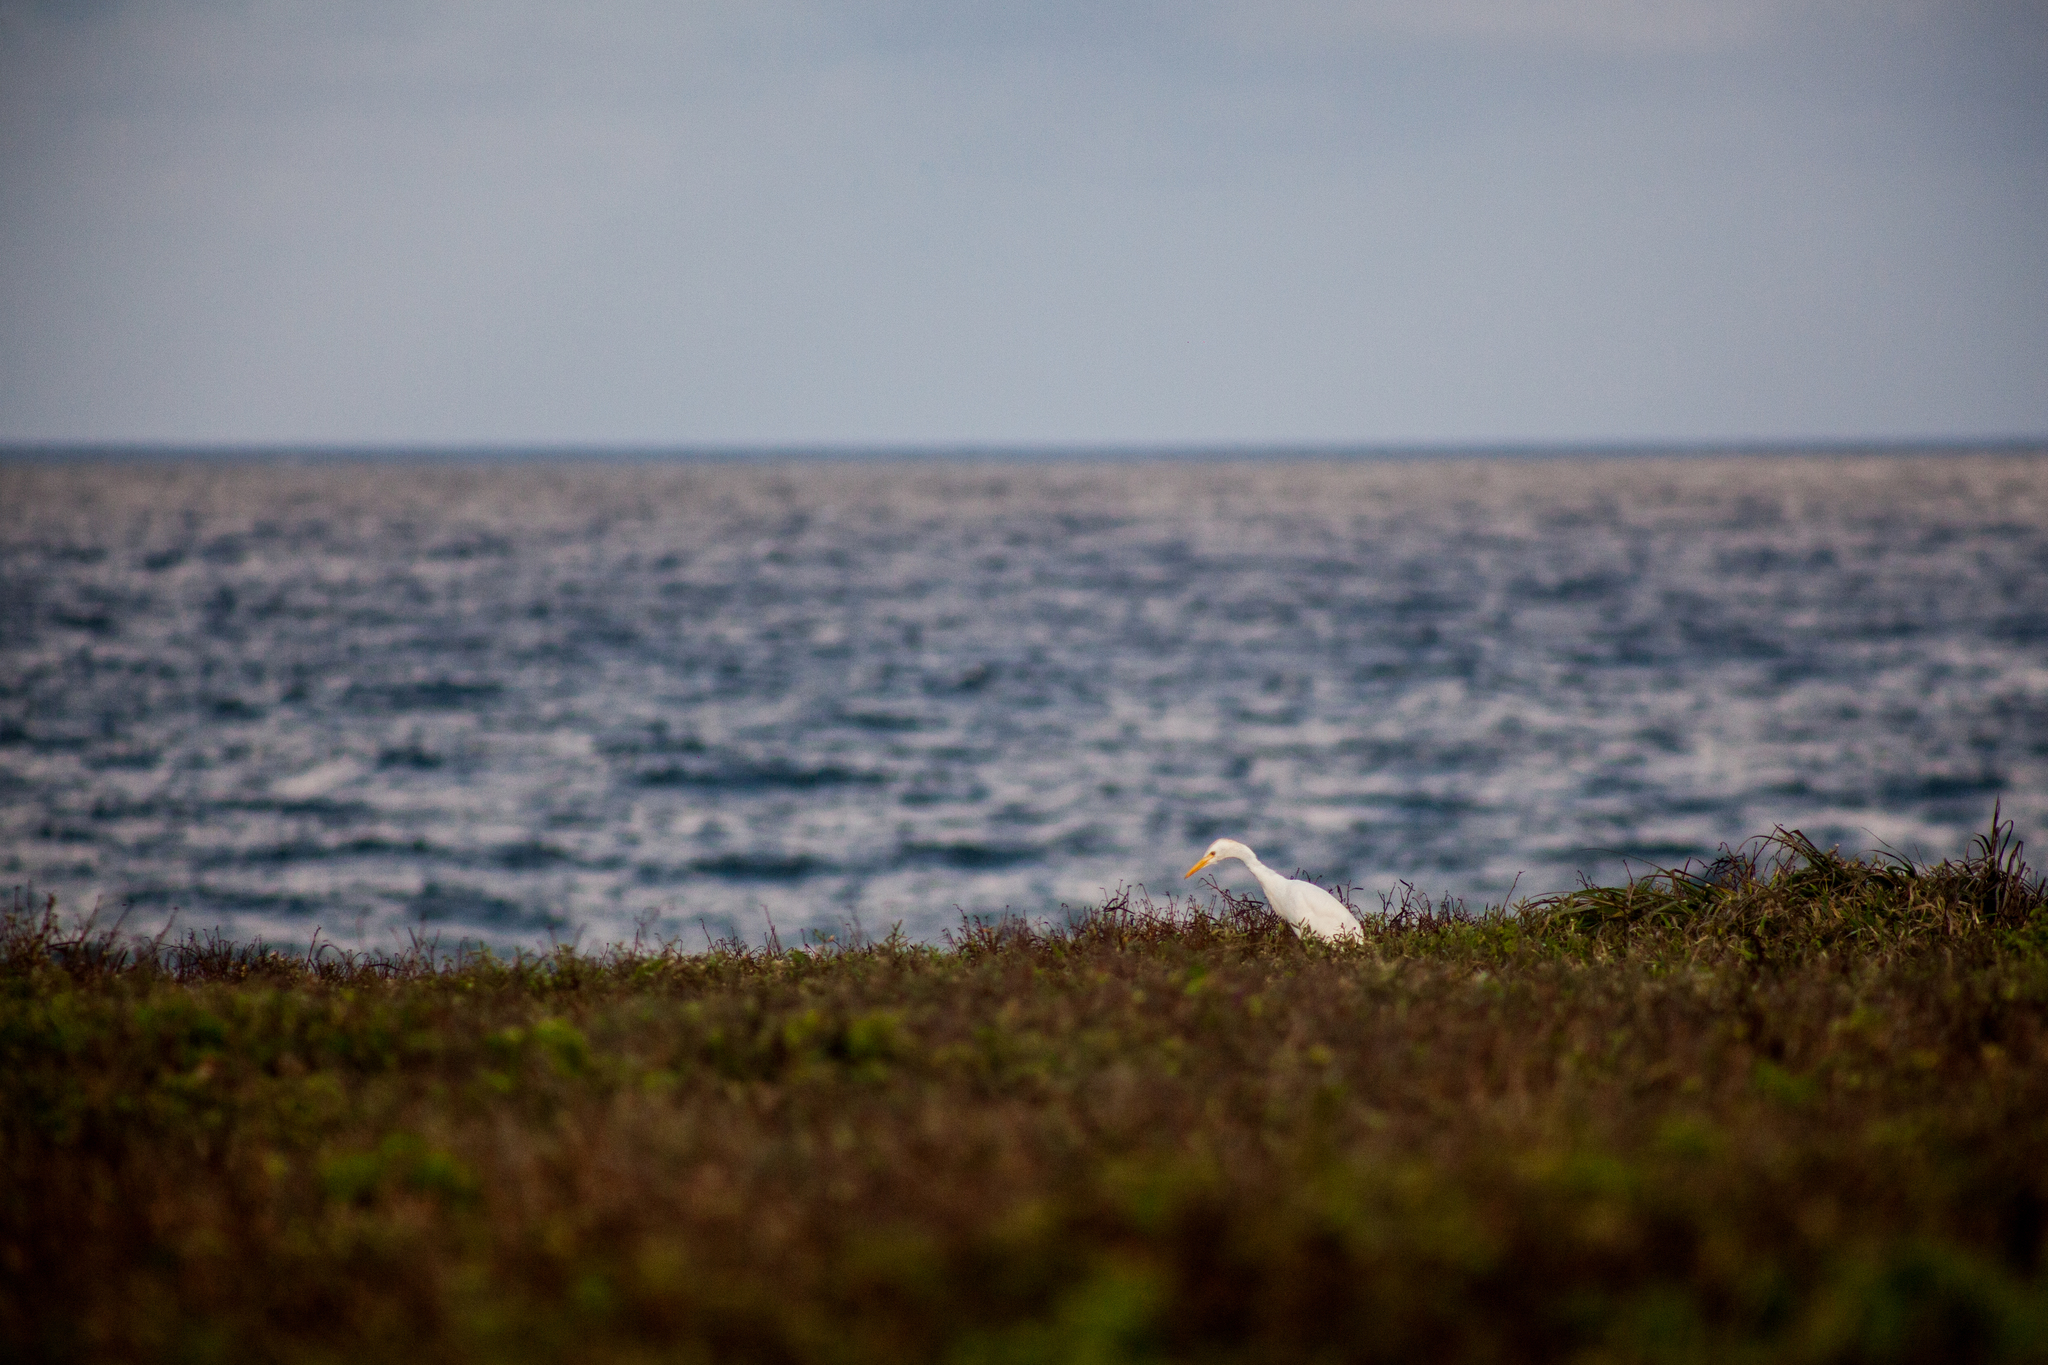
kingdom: Animalia
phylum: Chordata
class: Aves
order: Pelecaniformes
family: Ardeidae
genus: Bubulcus
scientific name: Bubulcus ibis
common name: Cattle egret
